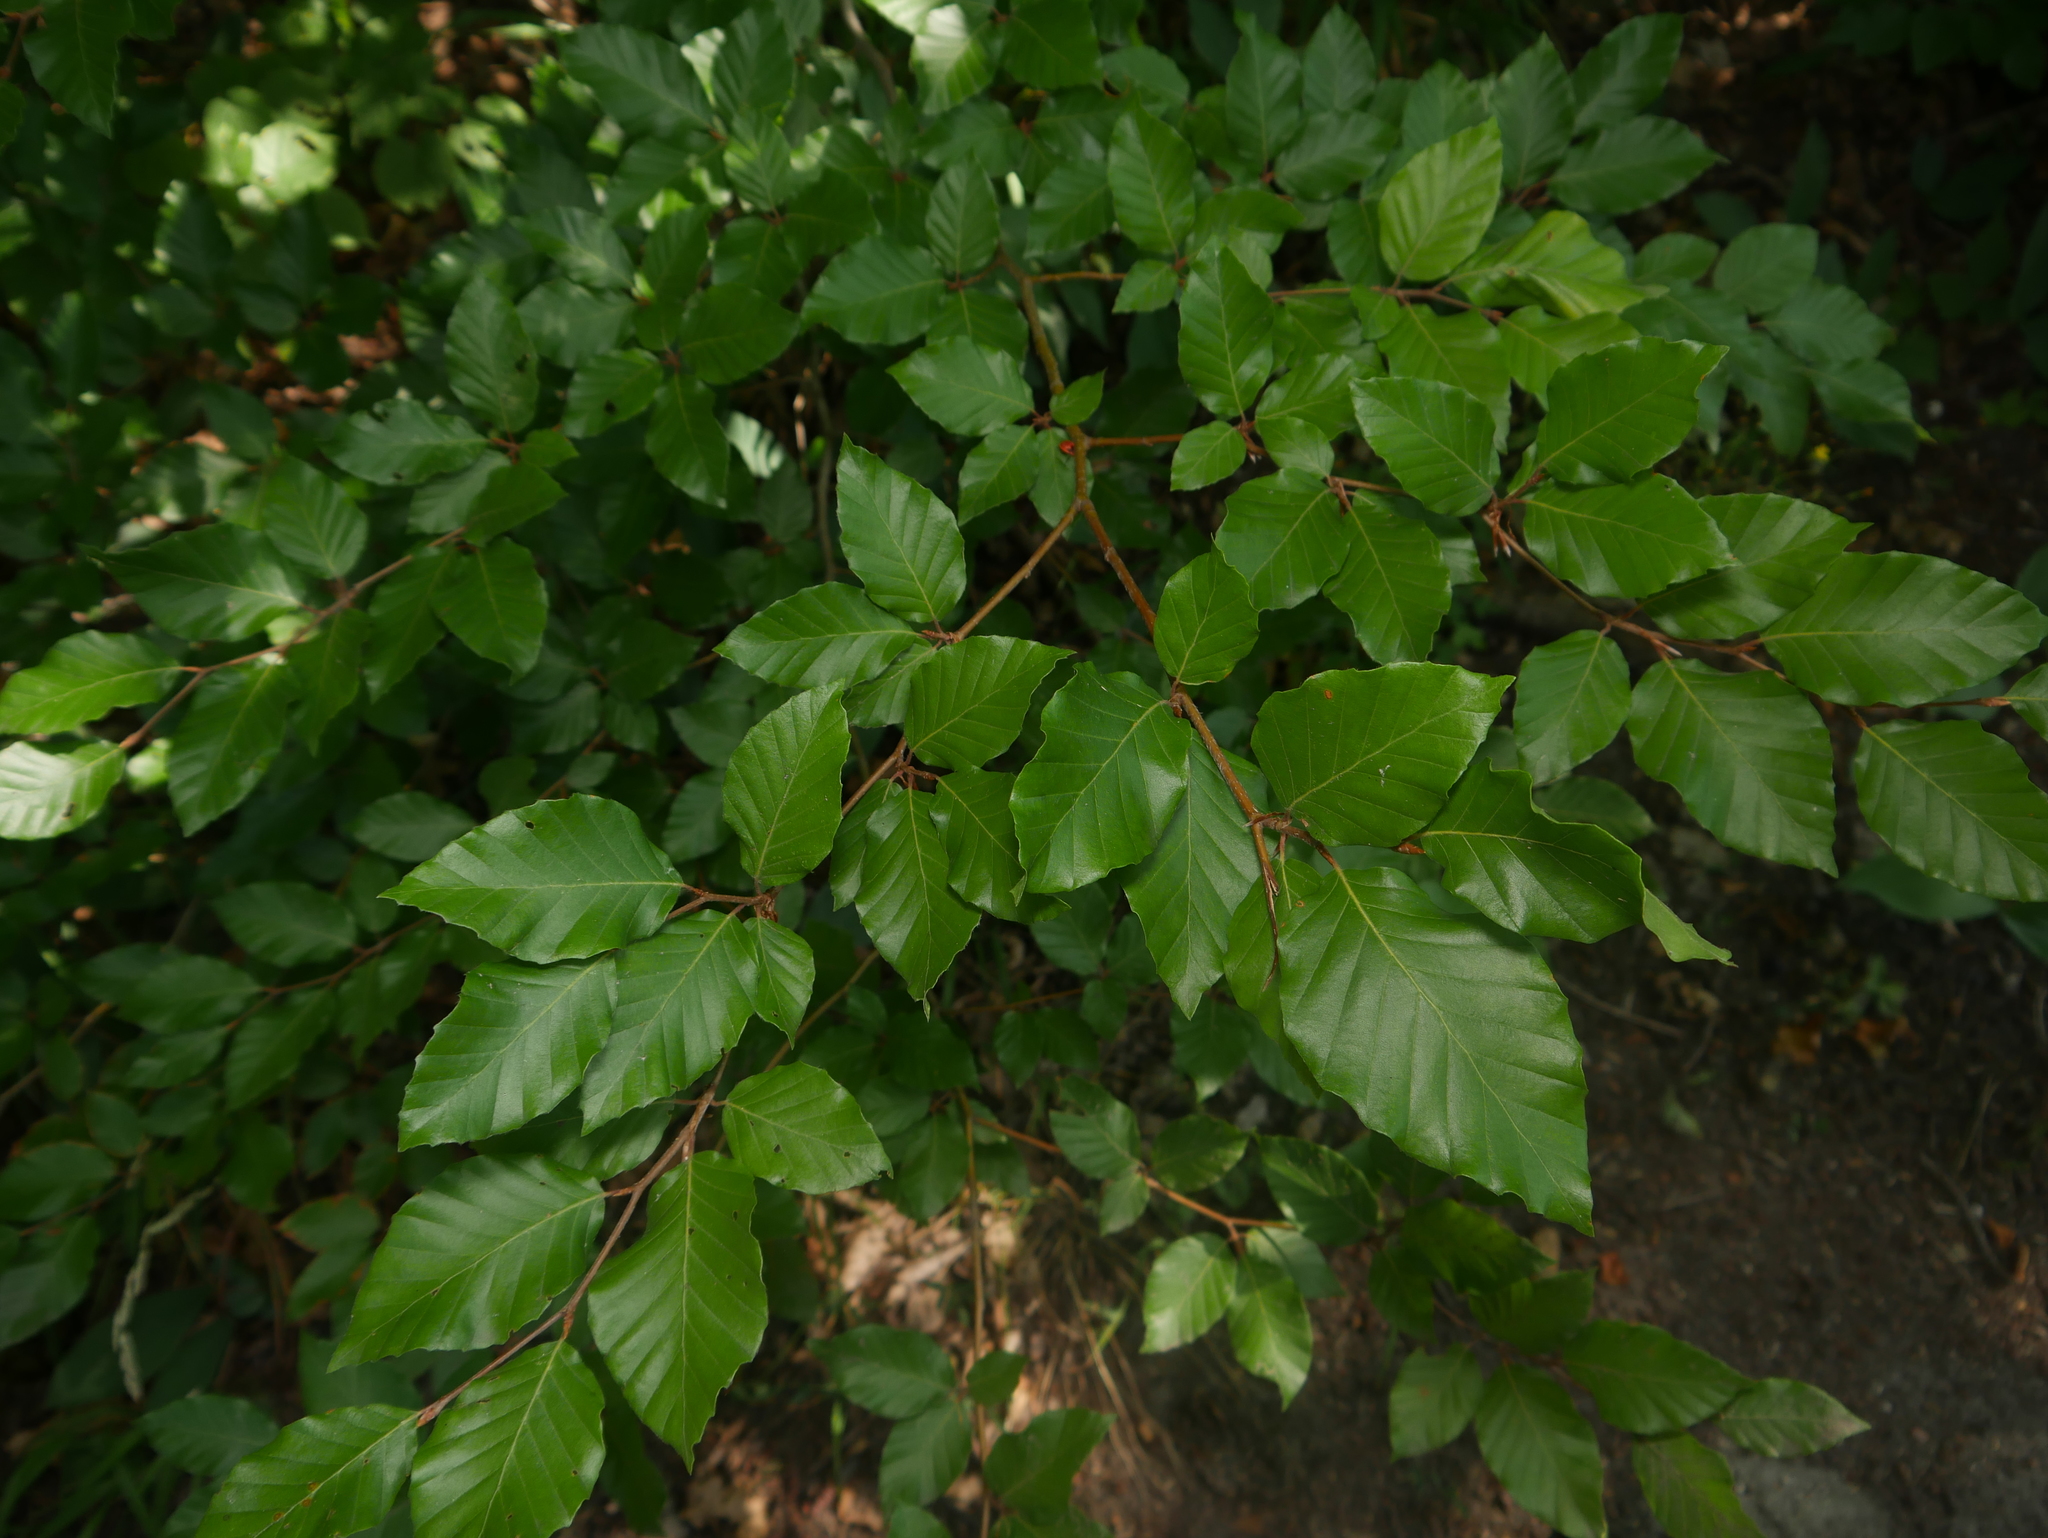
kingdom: Plantae
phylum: Tracheophyta
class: Magnoliopsida
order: Fagales
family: Fagaceae
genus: Fagus
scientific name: Fagus sylvatica
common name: Beech
